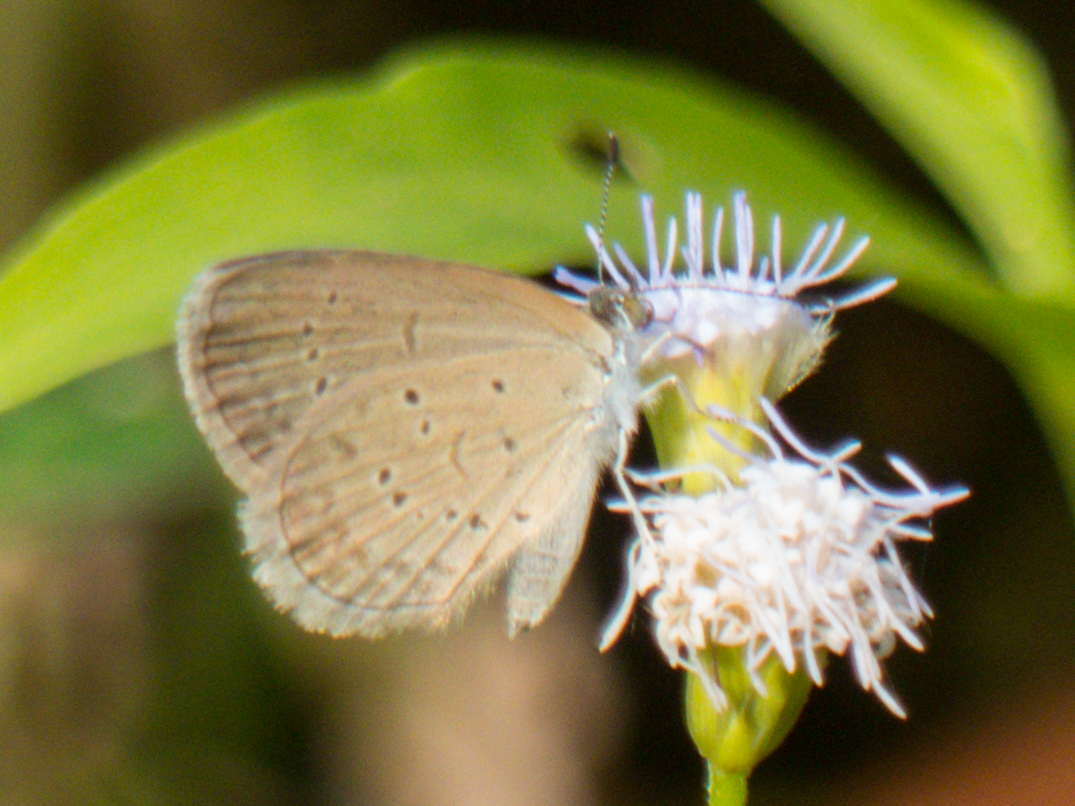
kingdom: Animalia
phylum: Arthropoda
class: Insecta
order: Lepidoptera
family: Lycaenidae
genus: Zizina
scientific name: Zizina otis
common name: Lesser grass blue
